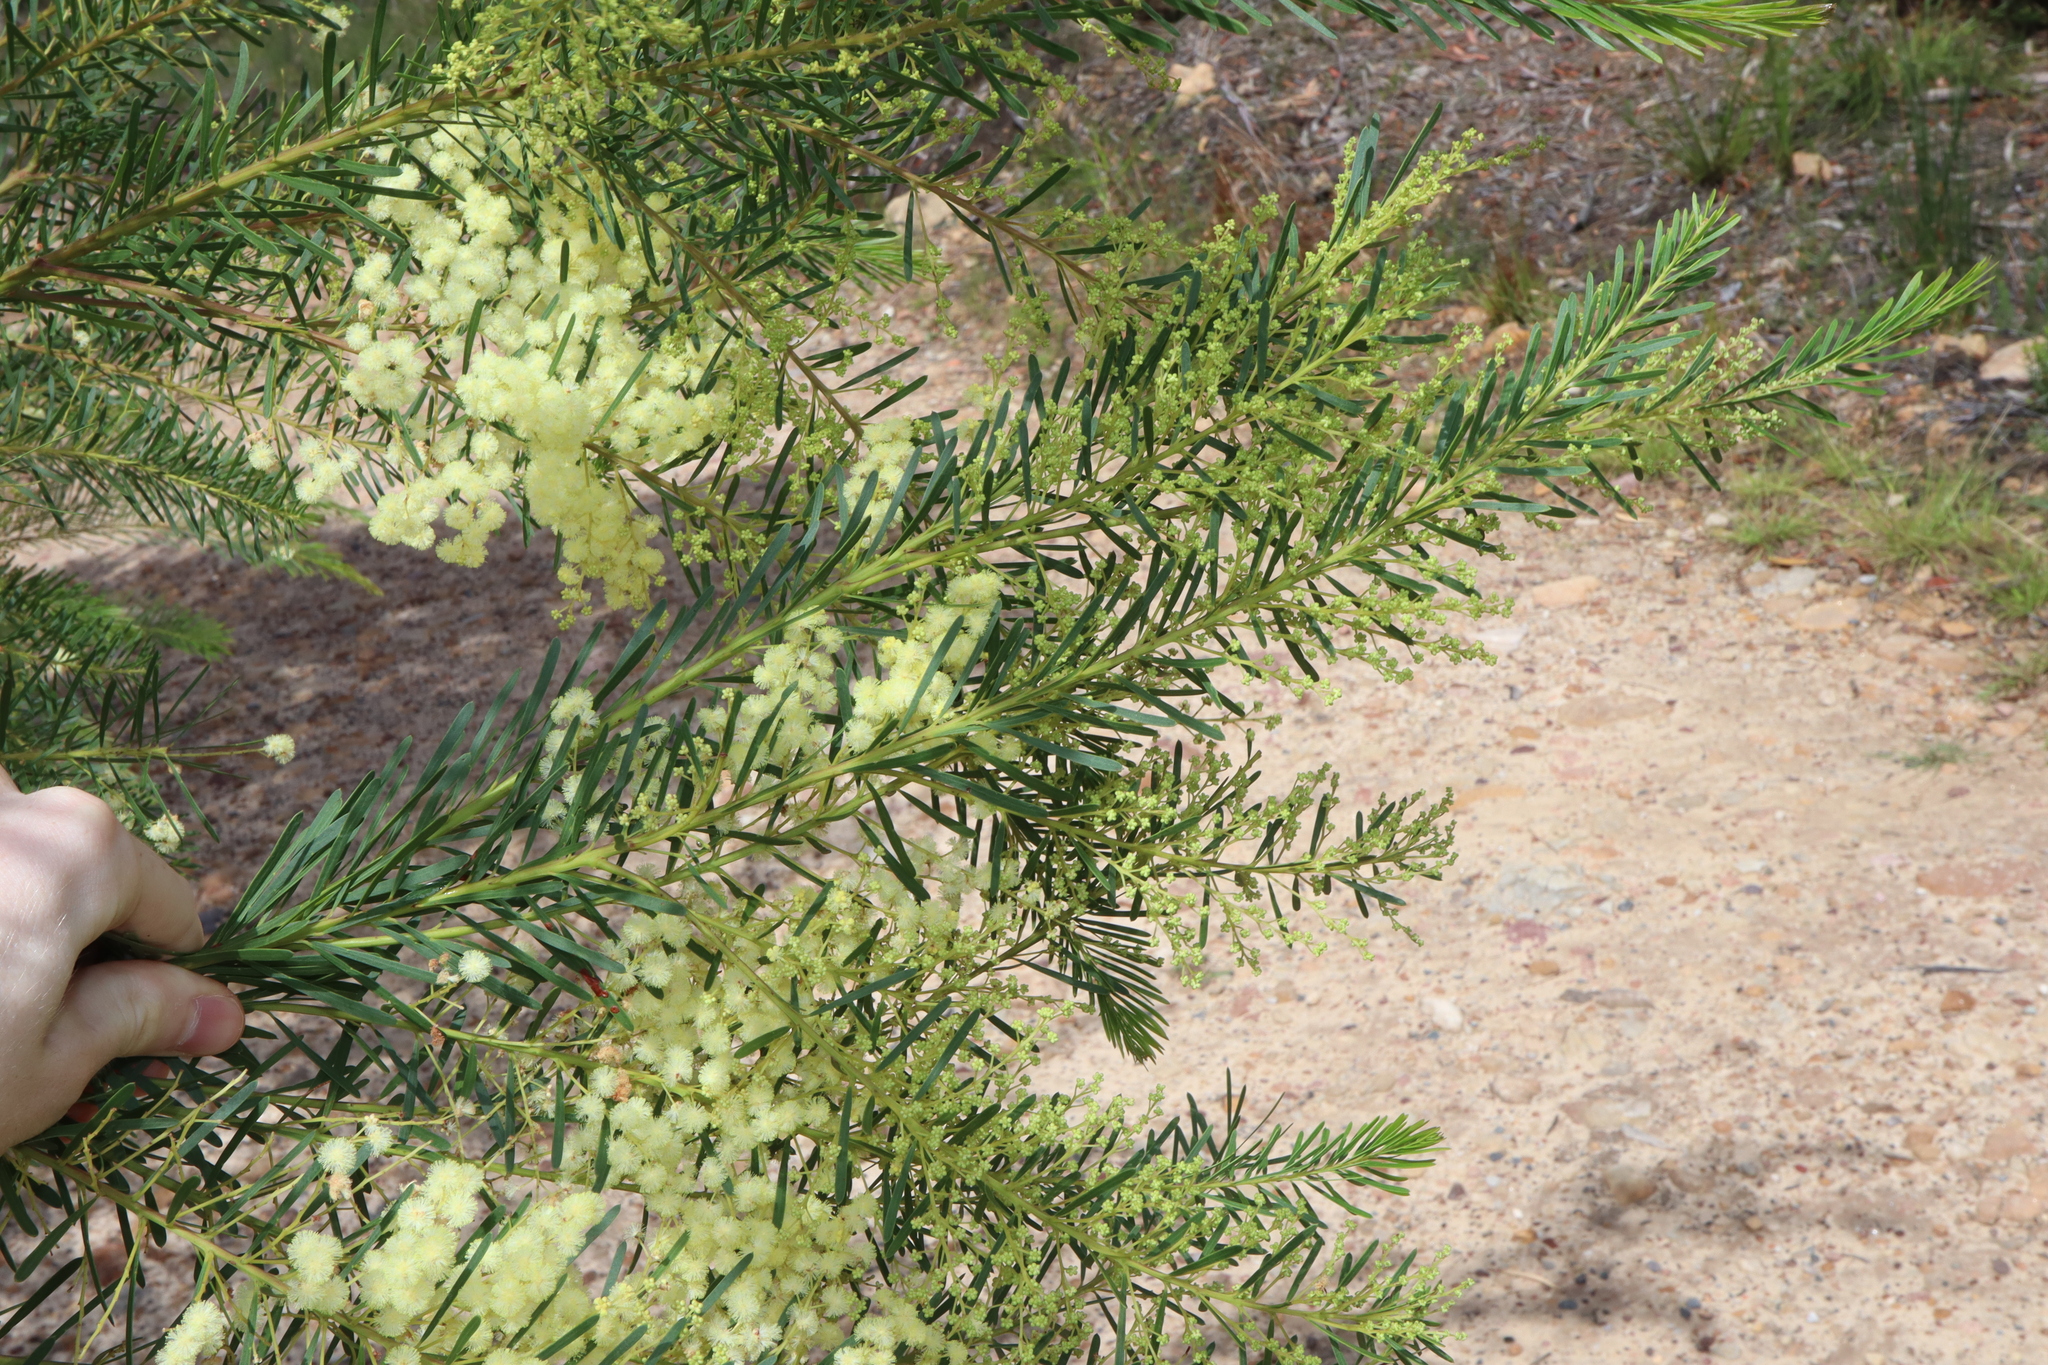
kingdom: Plantae
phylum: Tracheophyta
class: Magnoliopsida
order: Fabales
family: Fabaceae
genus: Acacia
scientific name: Acacia linifolia
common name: White wattle
